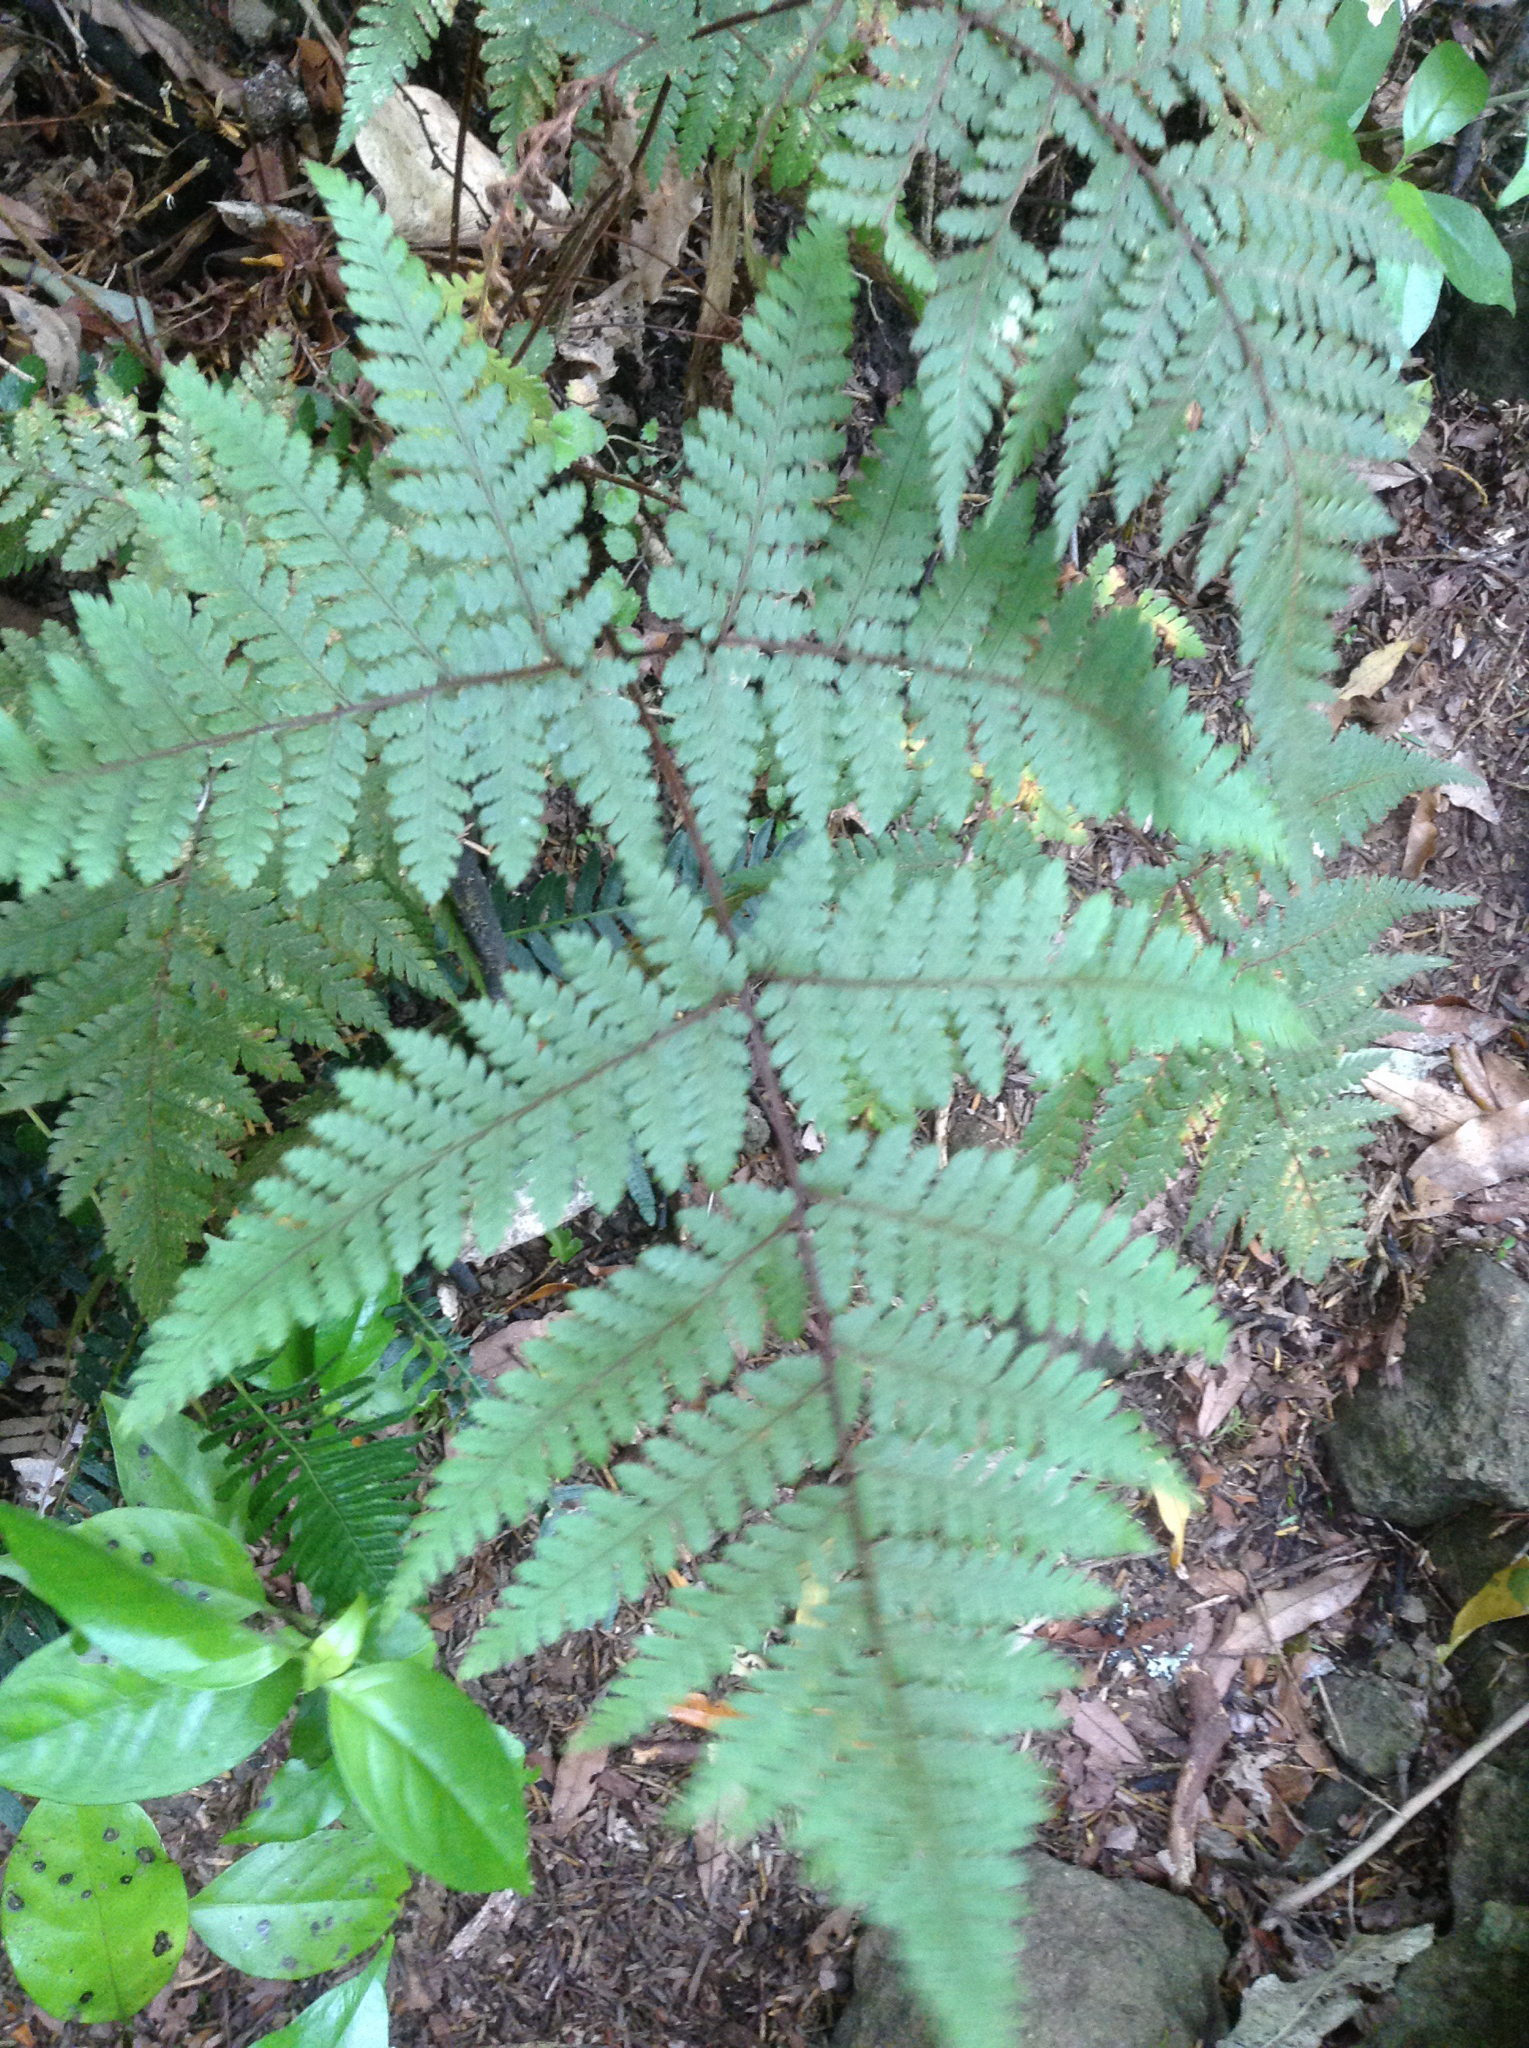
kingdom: Plantae
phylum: Tracheophyta
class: Polypodiopsida
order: Polypodiales
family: Dryopteridaceae
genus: Lastreopsis
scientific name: Lastreopsis velutina
